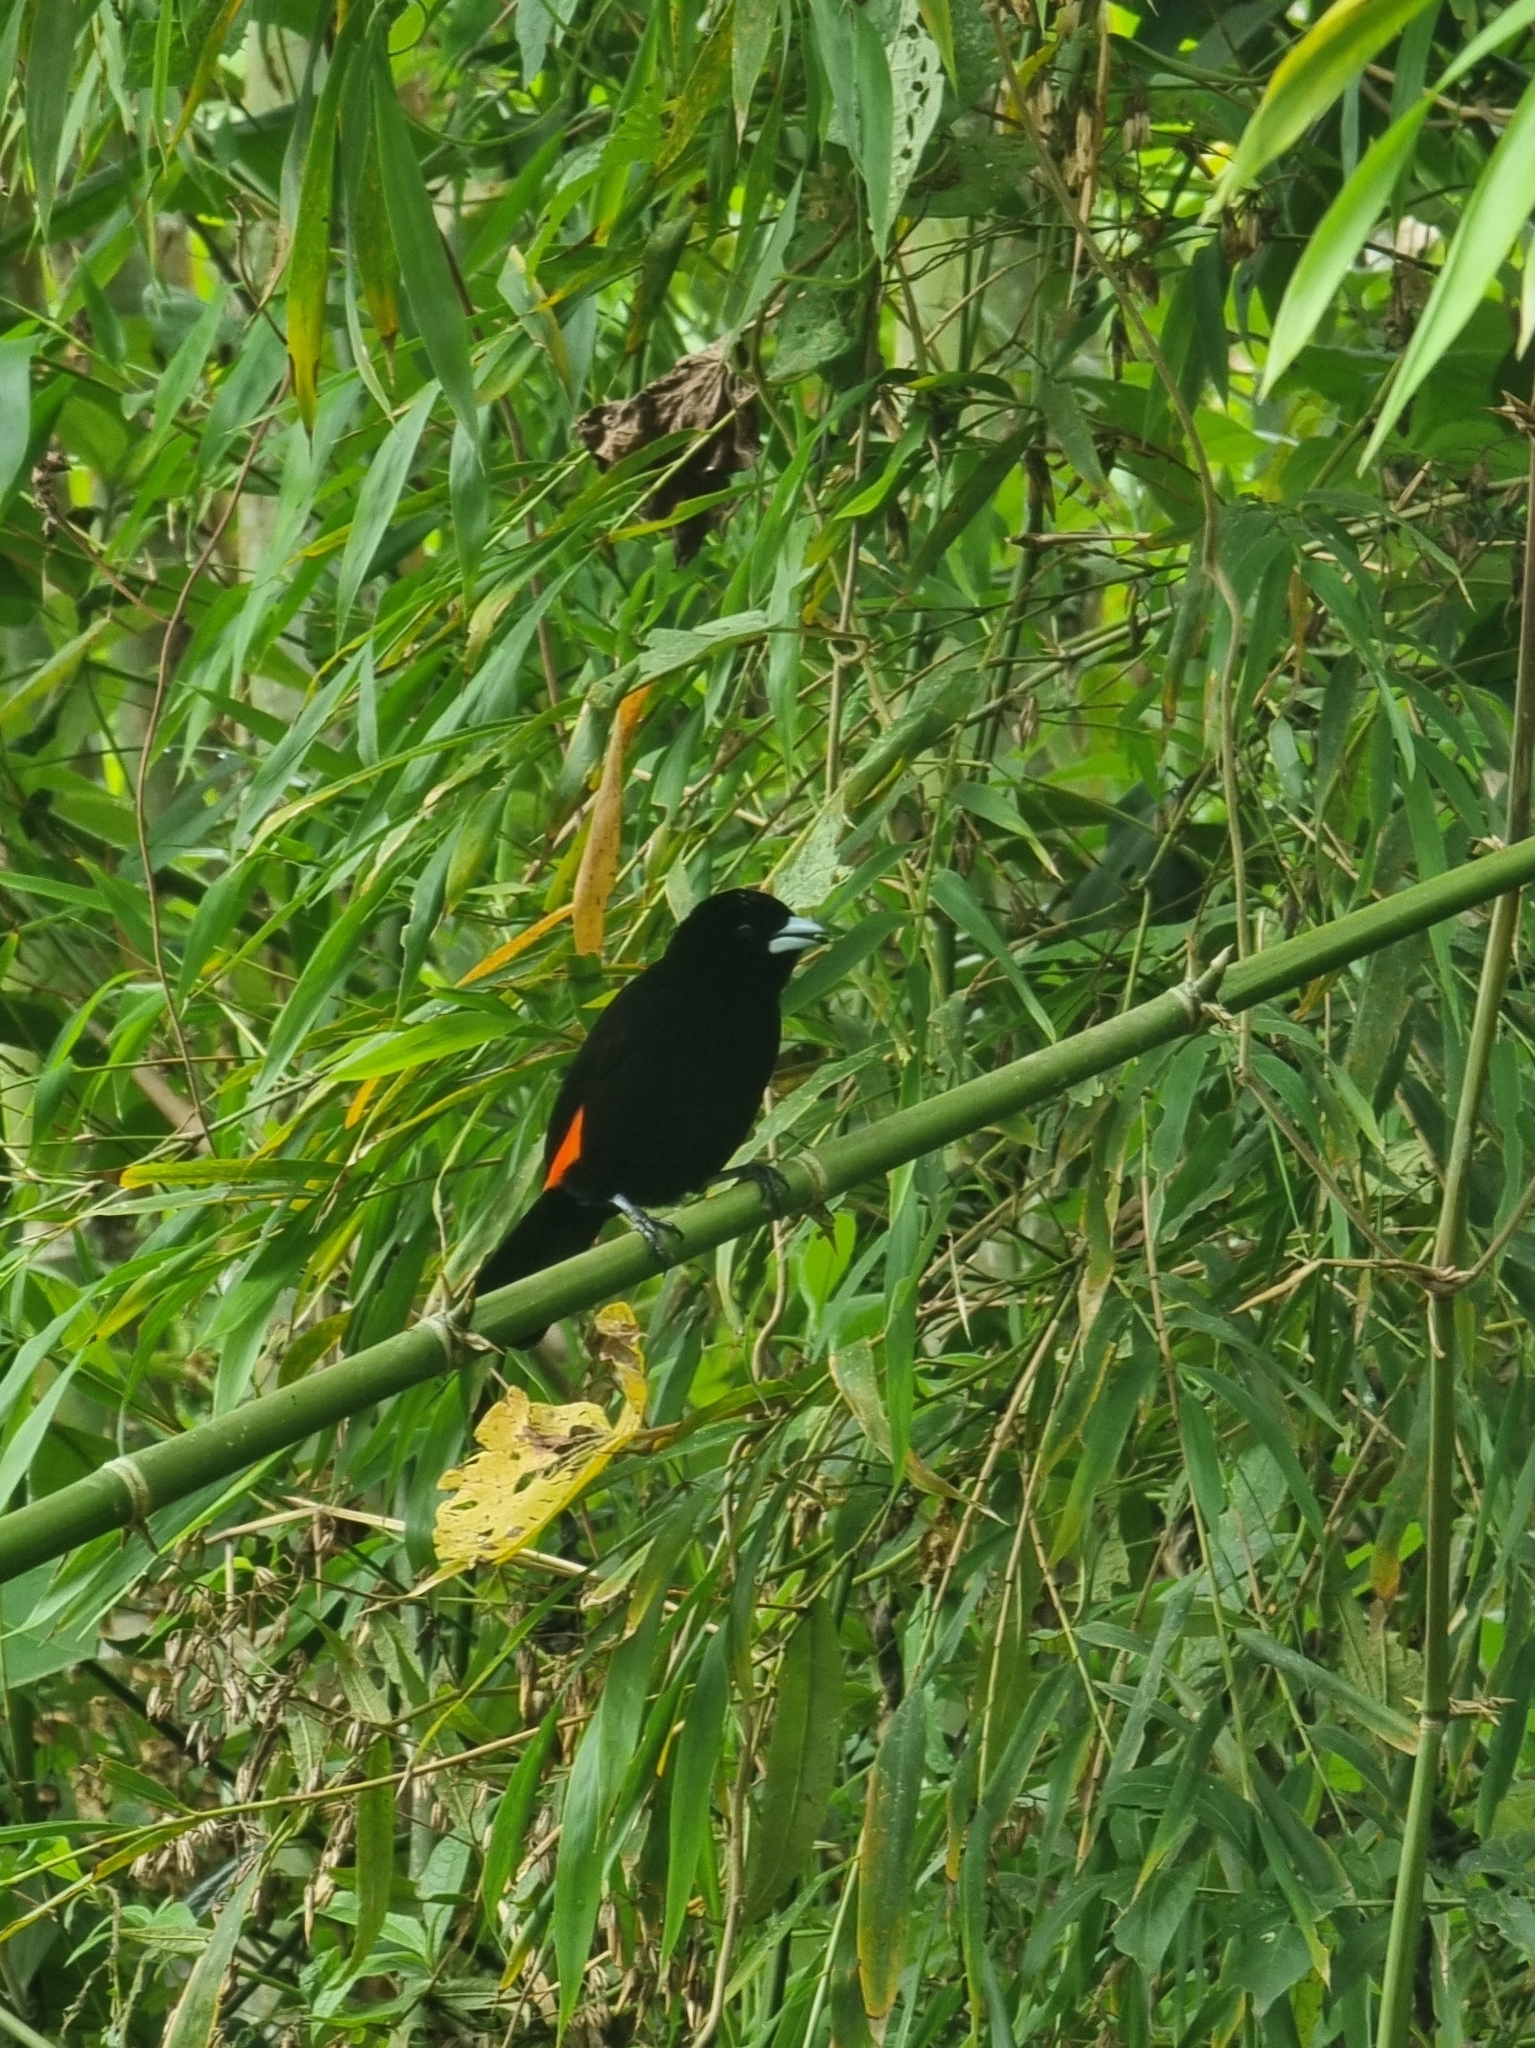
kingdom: Animalia
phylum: Chordata
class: Aves
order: Passeriformes
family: Thraupidae
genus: Ramphocelus
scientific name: Ramphocelus flammigerus
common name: Flame-rumped tanager
